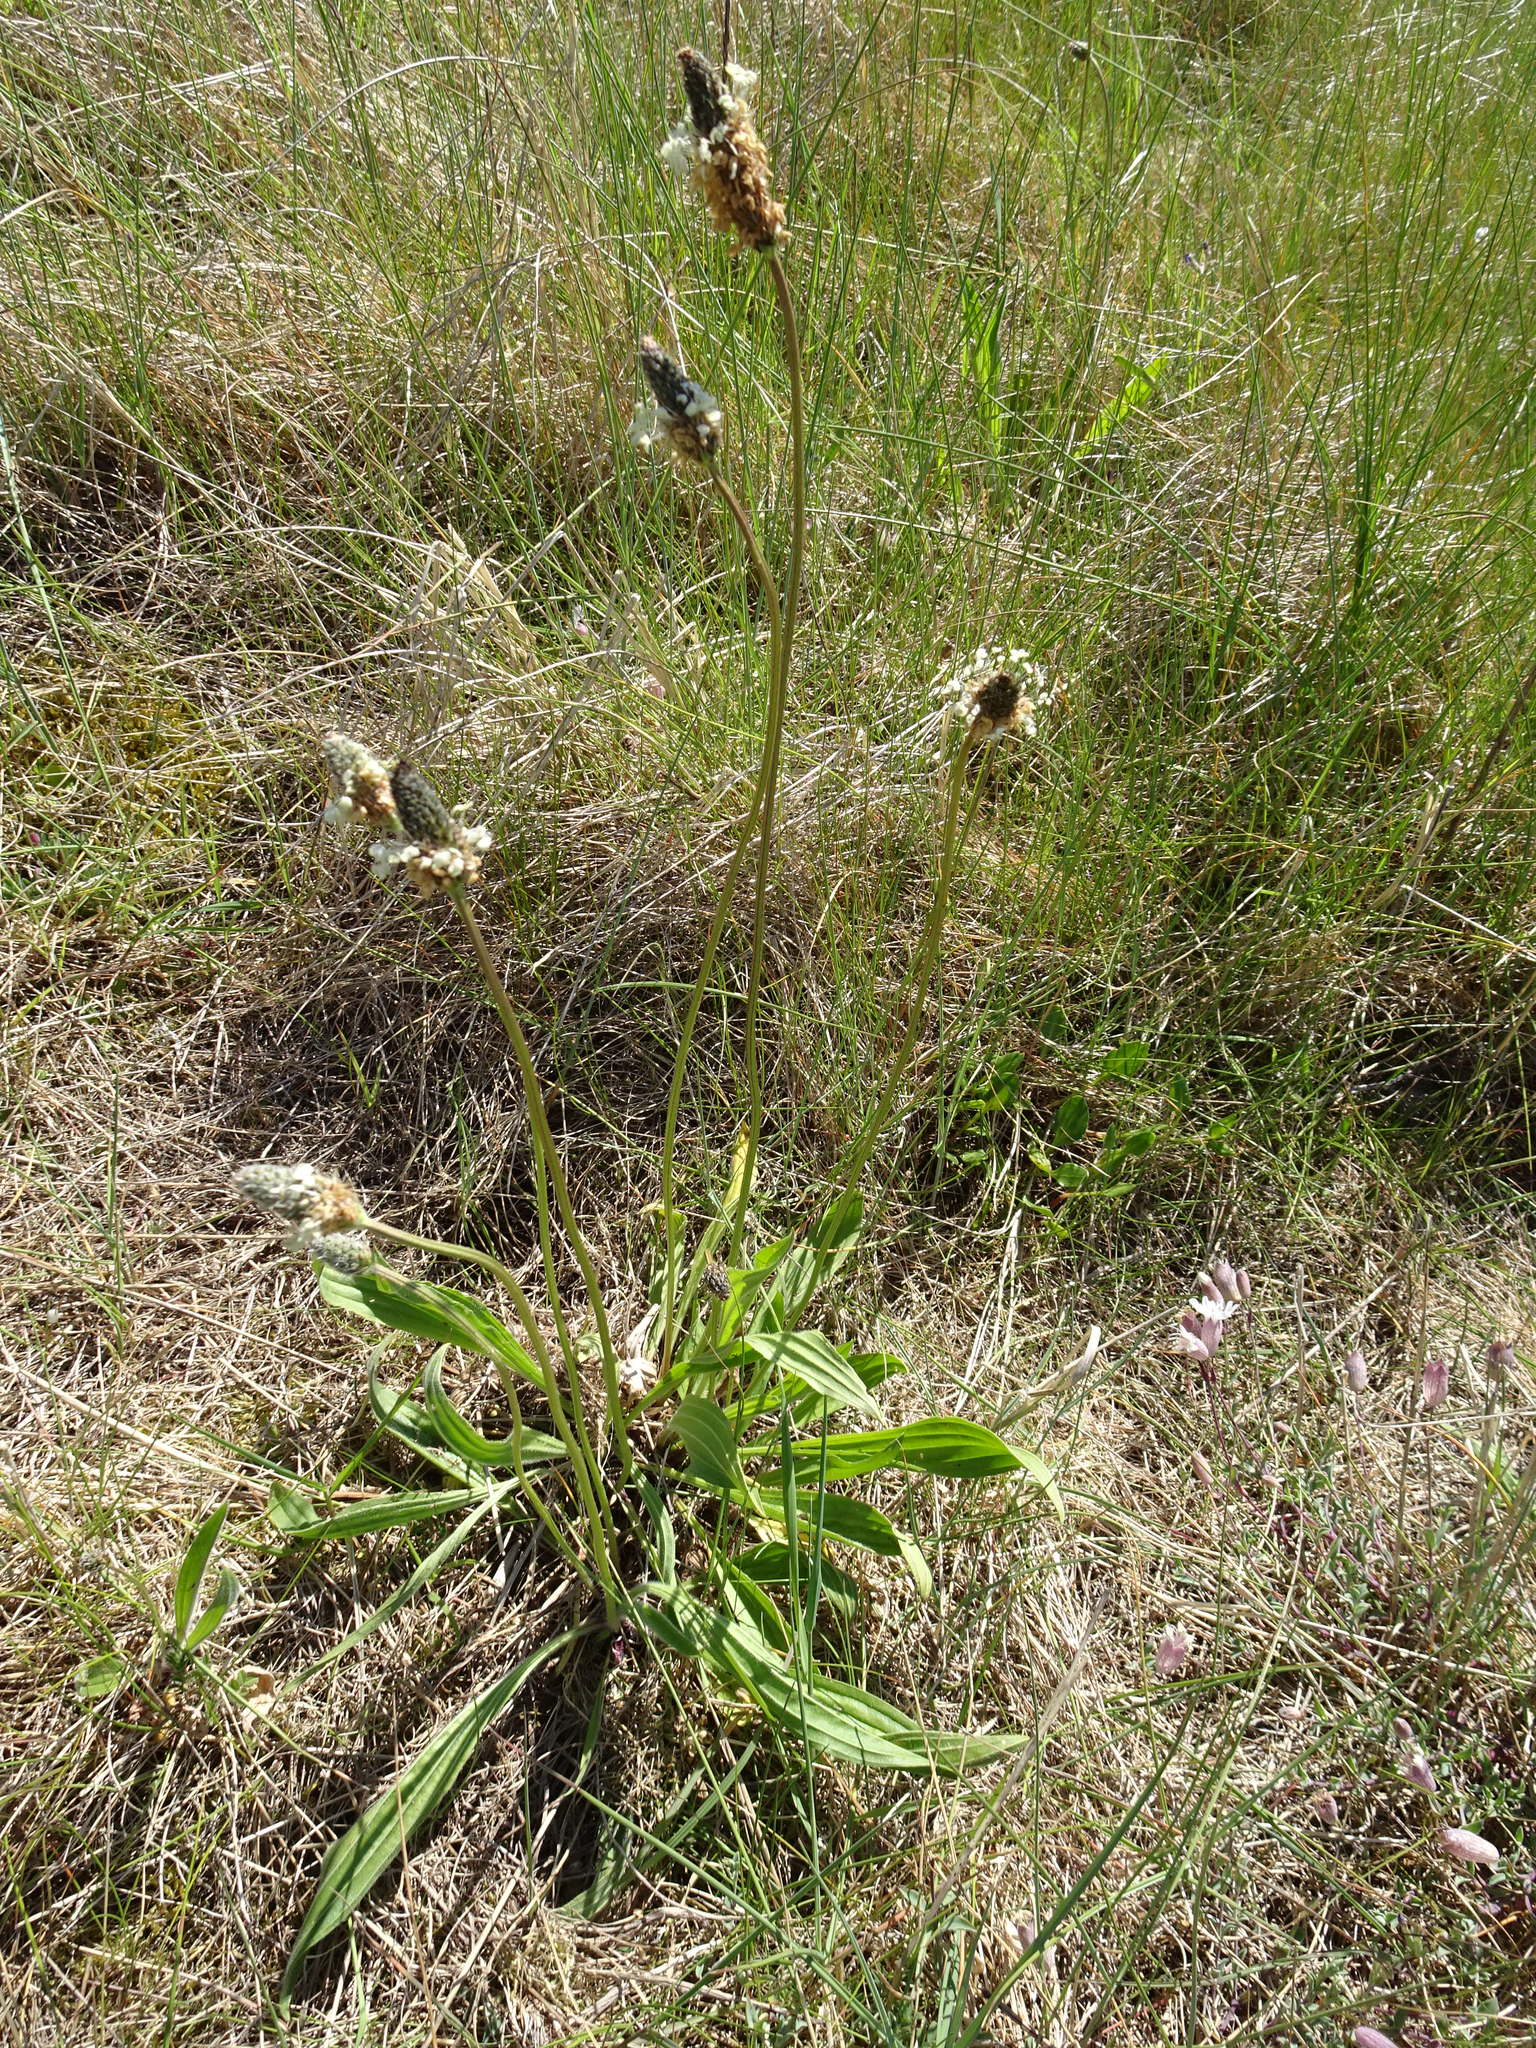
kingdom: Plantae
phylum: Tracheophyta
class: Magnoliopsida
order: Lamiales
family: Plantaginaceae
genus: Plantago
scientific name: Plantago lanceolata
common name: Ribwort plantain
